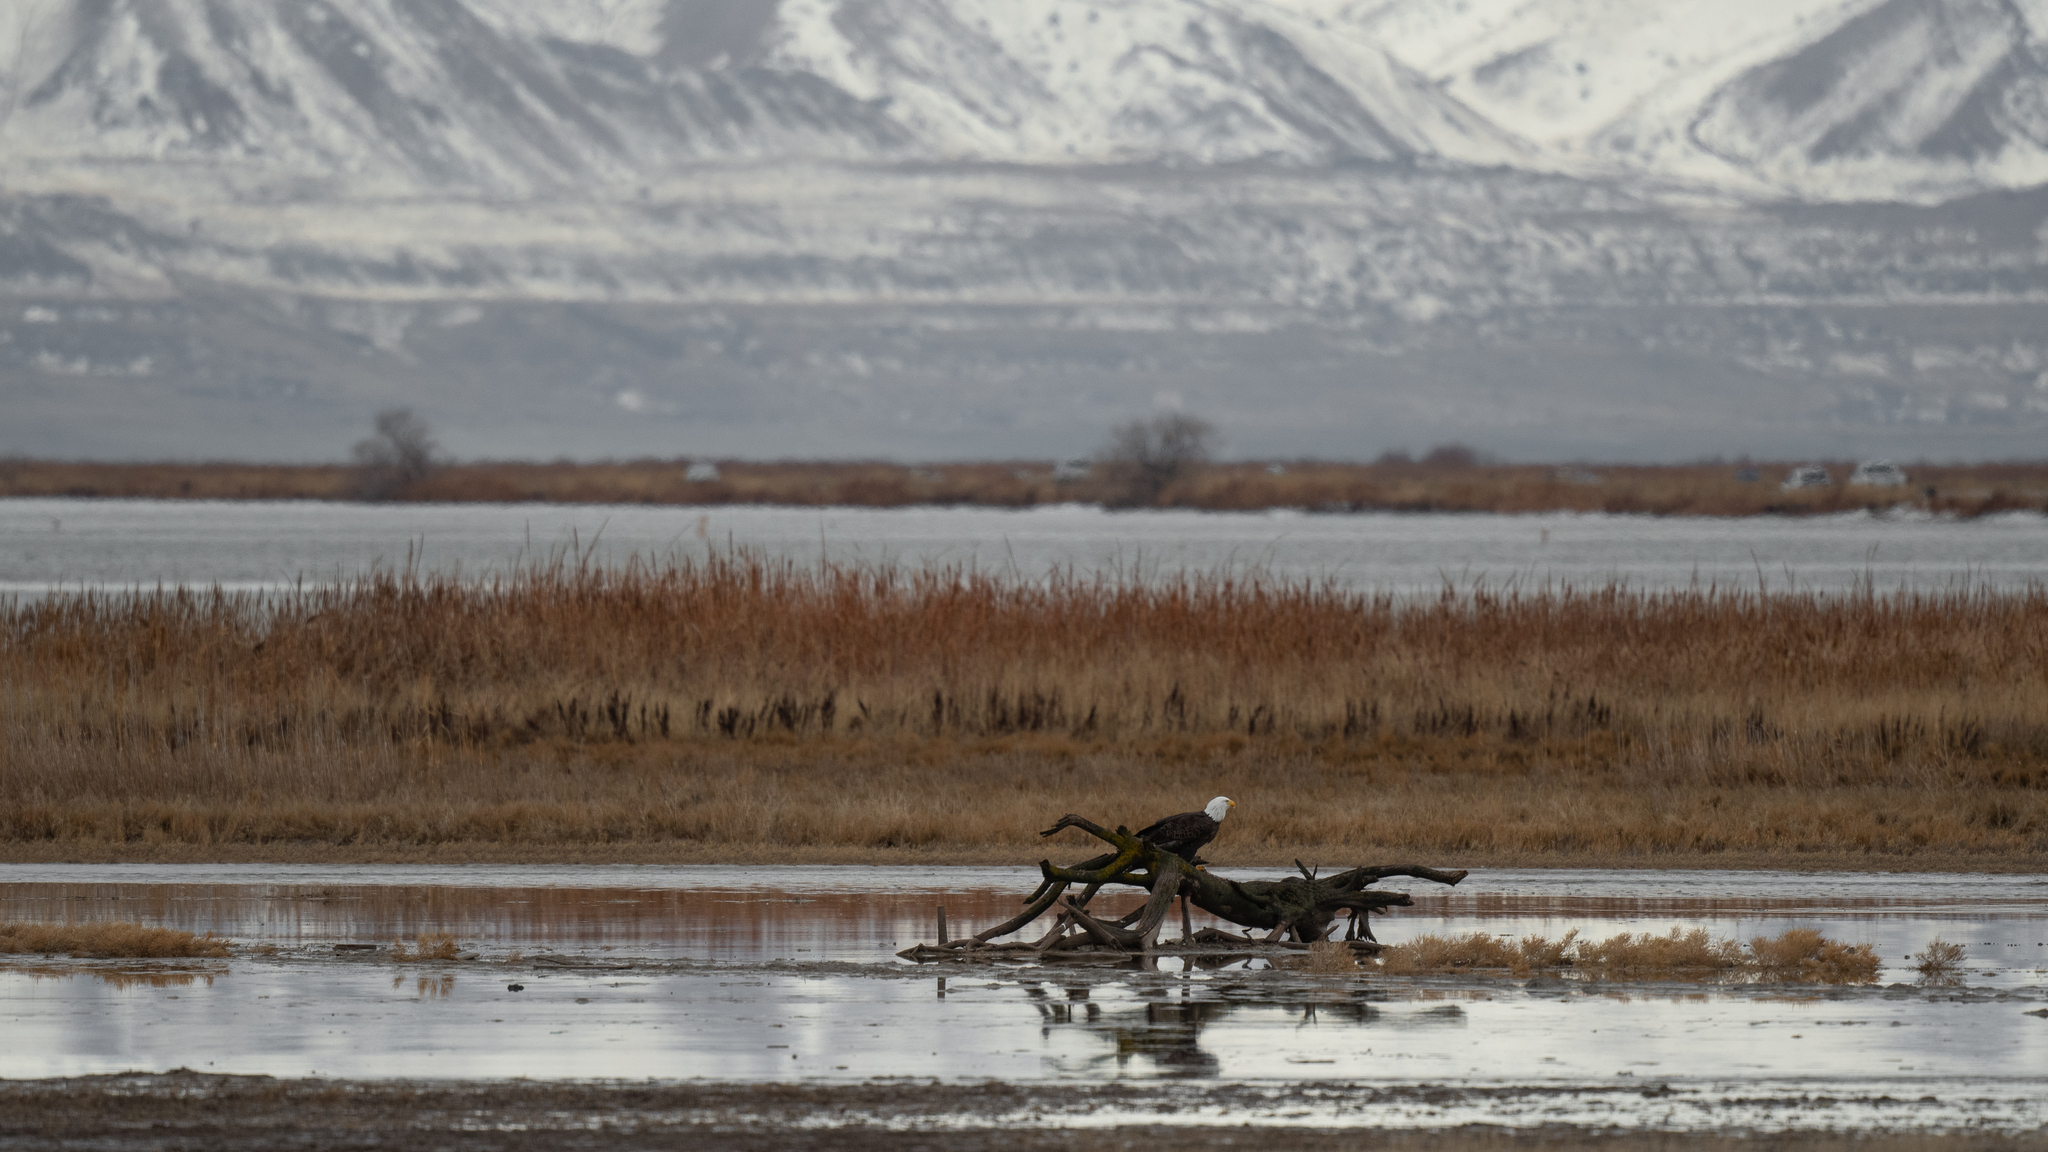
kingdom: Animalia
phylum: Chordata
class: Aves
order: Accipitriformes
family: Accipitridae
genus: Haliaeetus
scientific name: Haliaeetus leucocephalus
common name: Bald eagle
